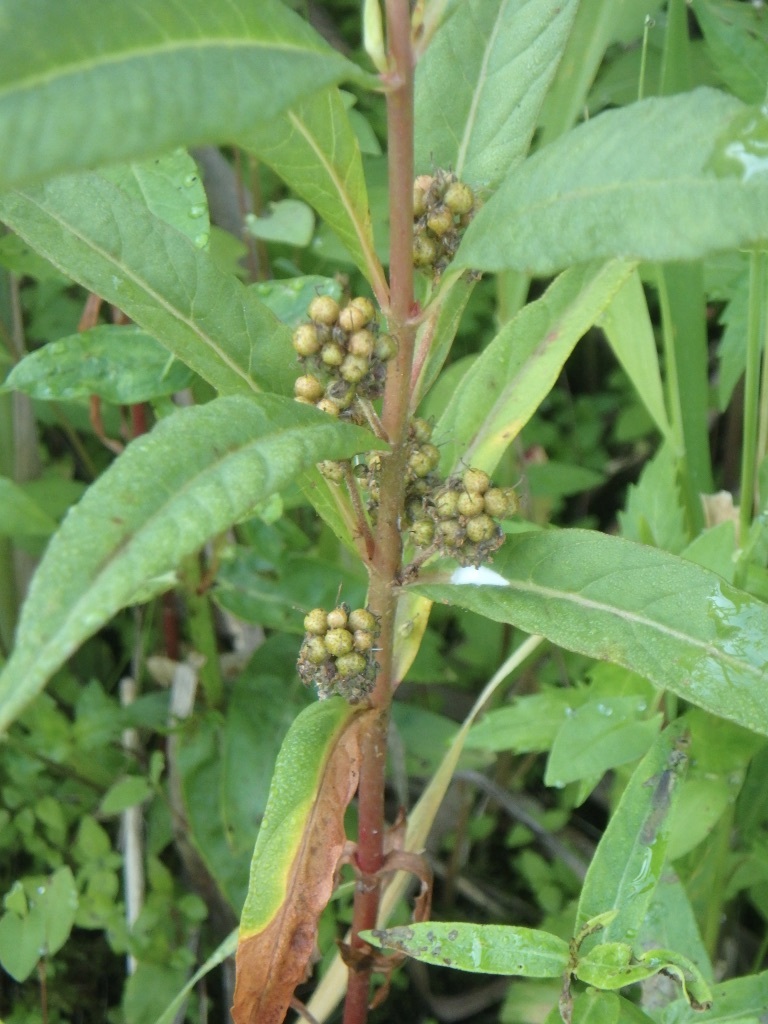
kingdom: Plantae
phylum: Tracheophyta
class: Magnoliopsida
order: Ericales
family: Primulaceae
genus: Lysimachia
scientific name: Lysimachia thyrsiflora
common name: Tufted loosestrife
